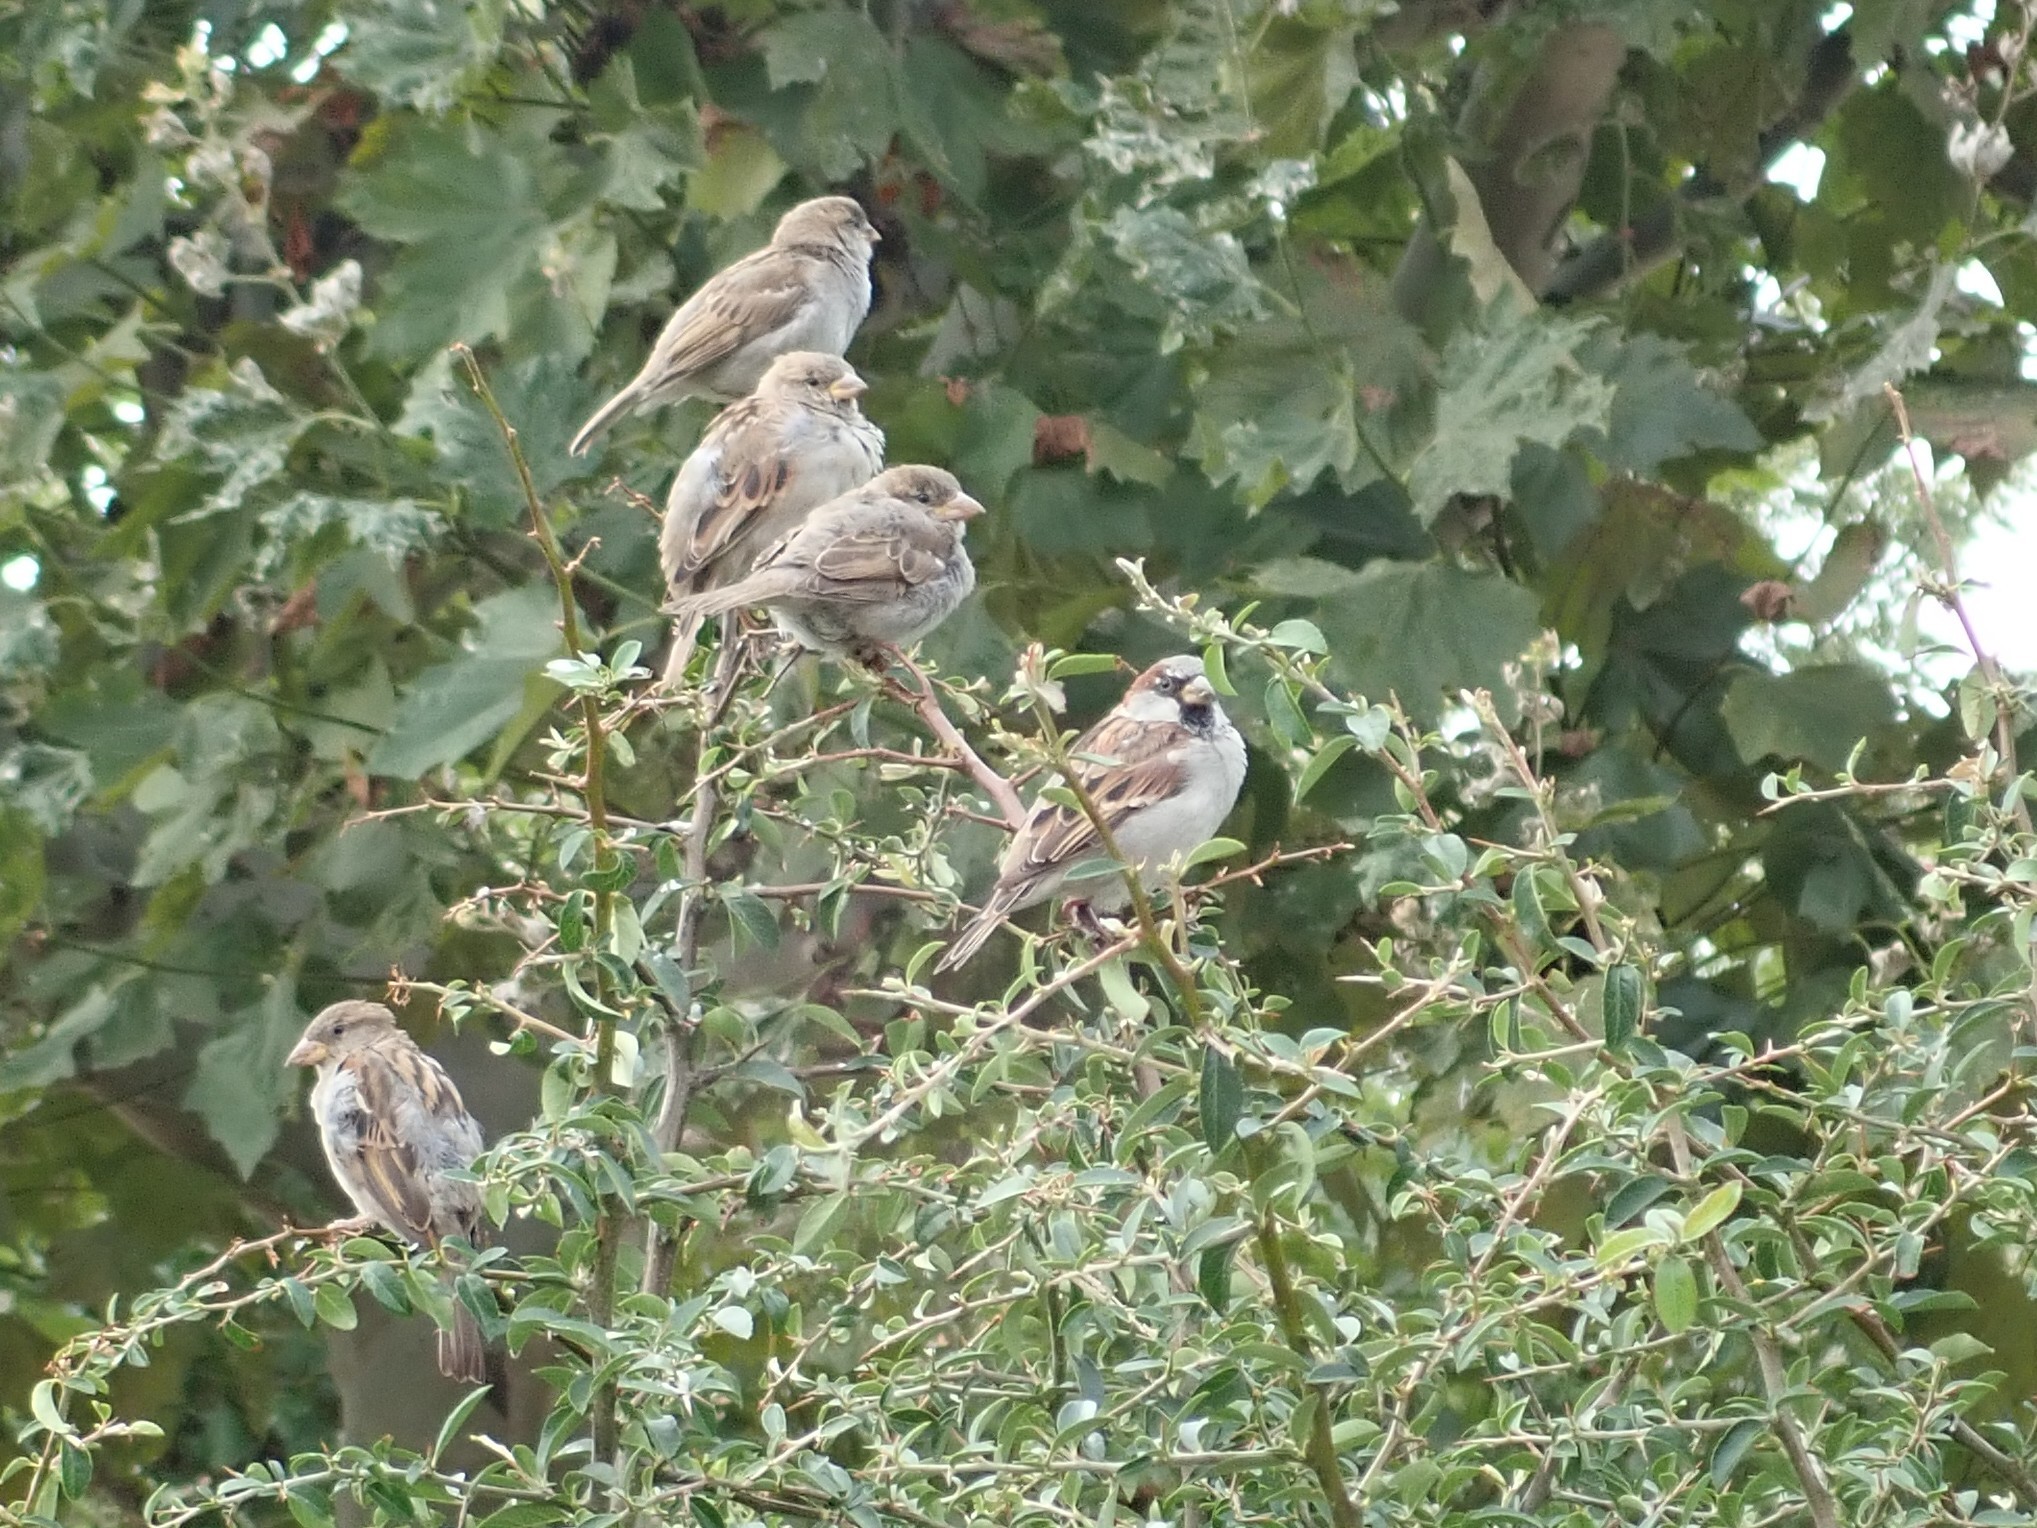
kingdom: Animalia
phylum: Chordata
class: Aves
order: Passeriformes
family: Passeridae
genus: Passer
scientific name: Passer domesticus
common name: House sparrow
